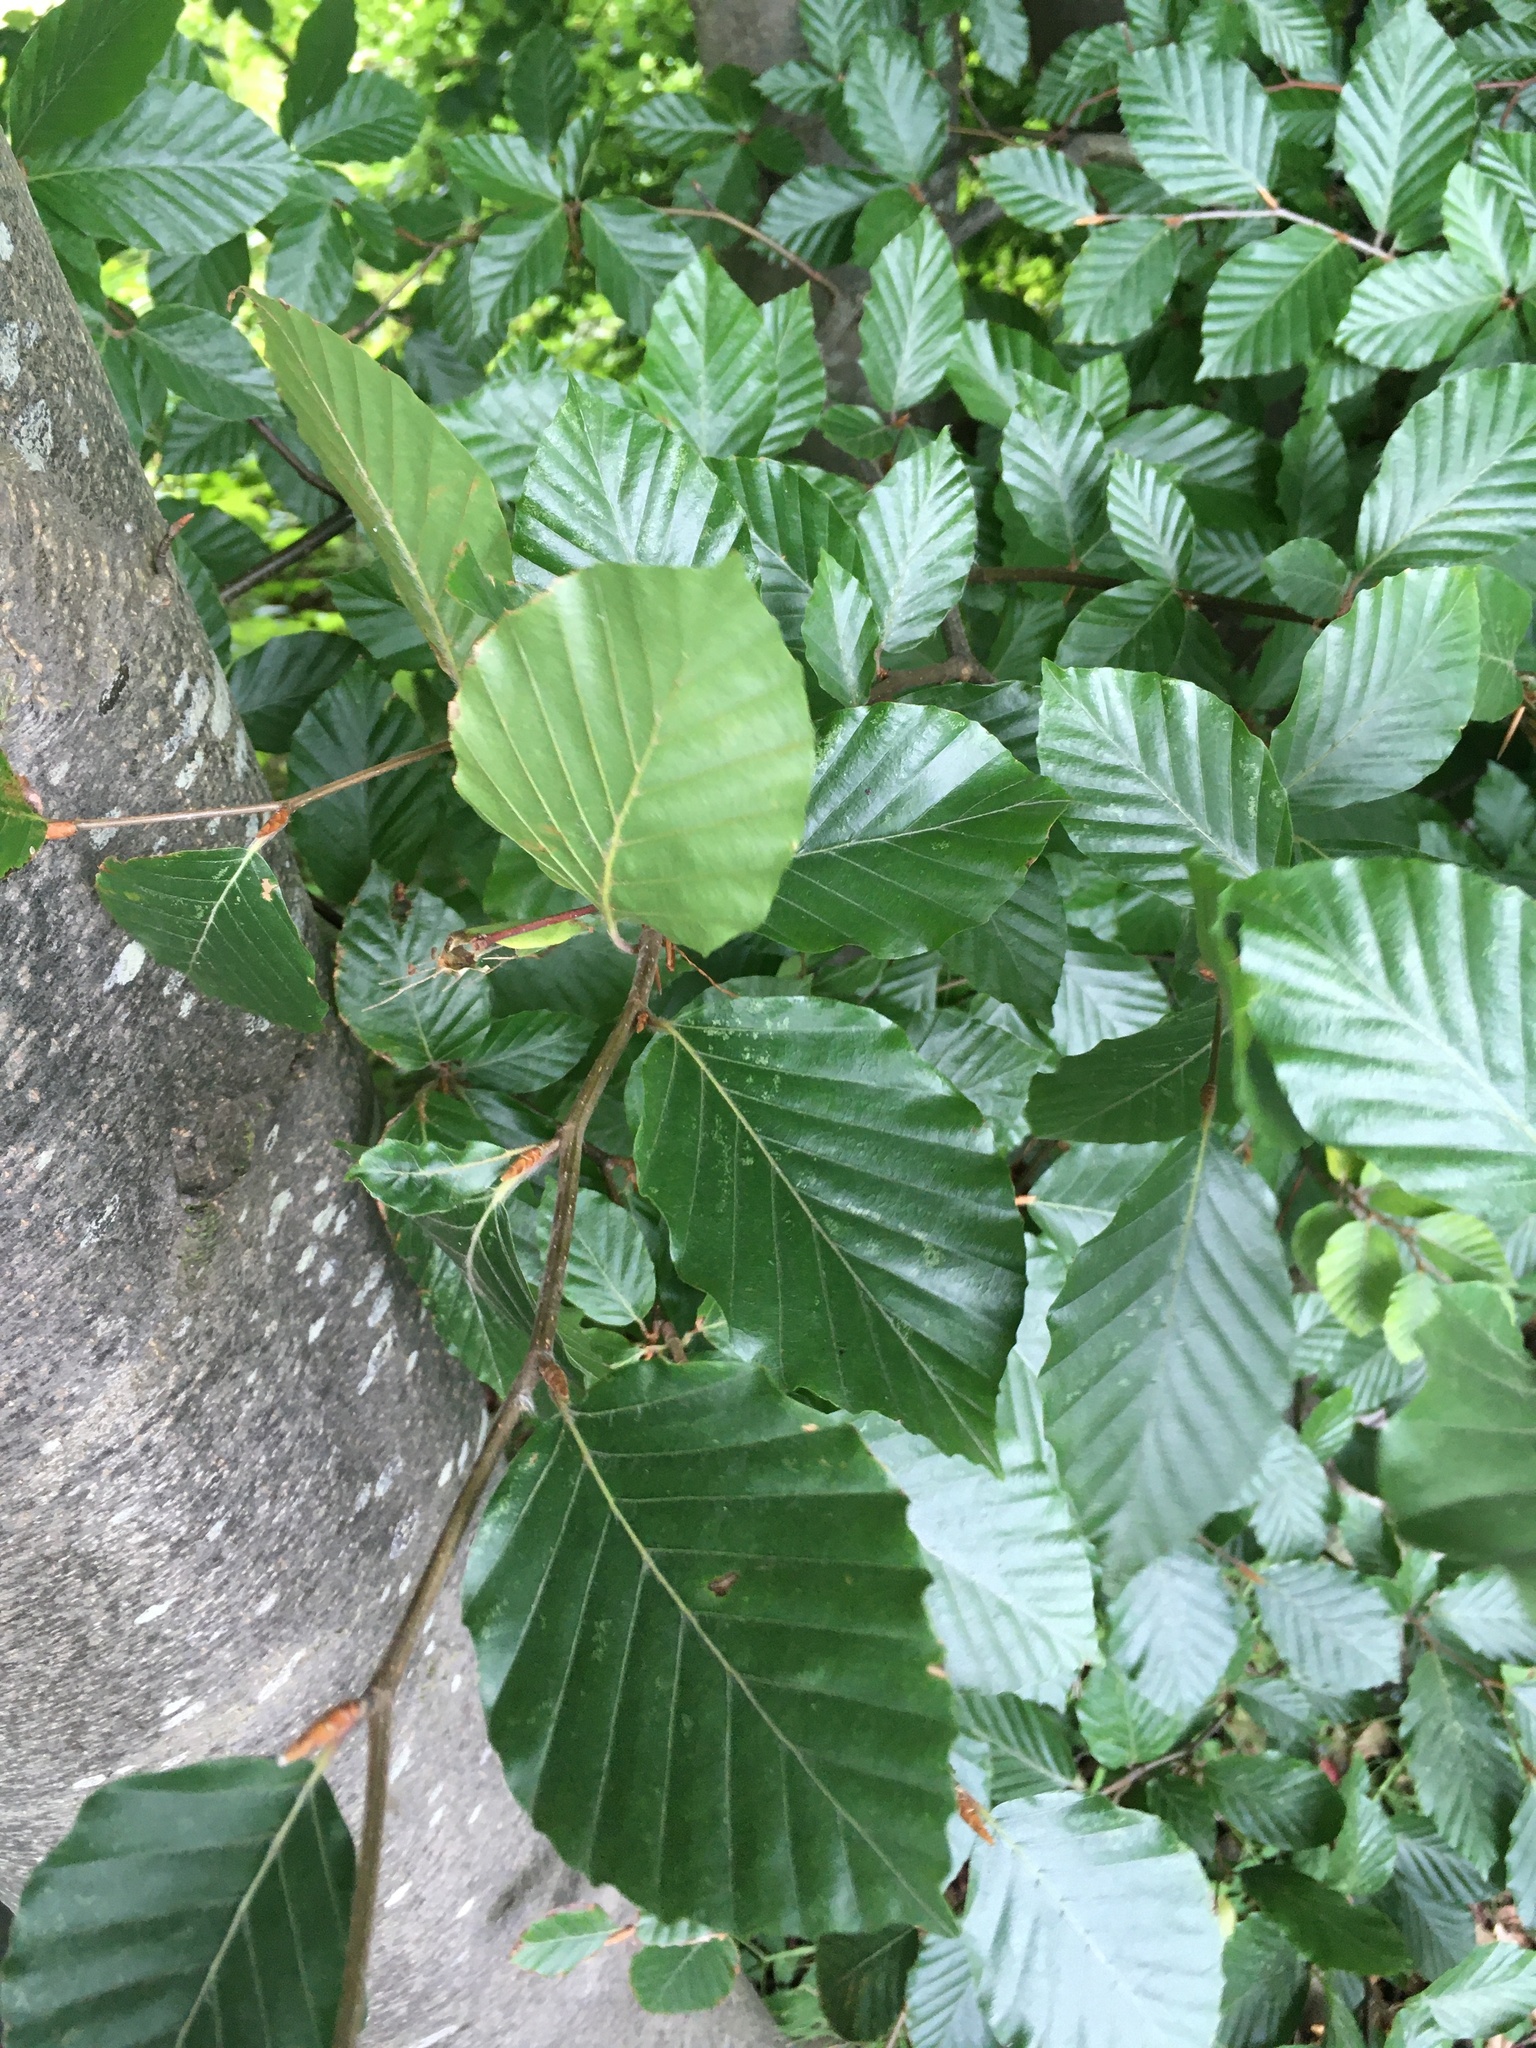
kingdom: Plantae
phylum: Tracheophyta
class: Magnoliopsida
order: Fagales
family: Fagaceae
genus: Fagus
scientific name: Fagus sylvatica
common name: Beech
